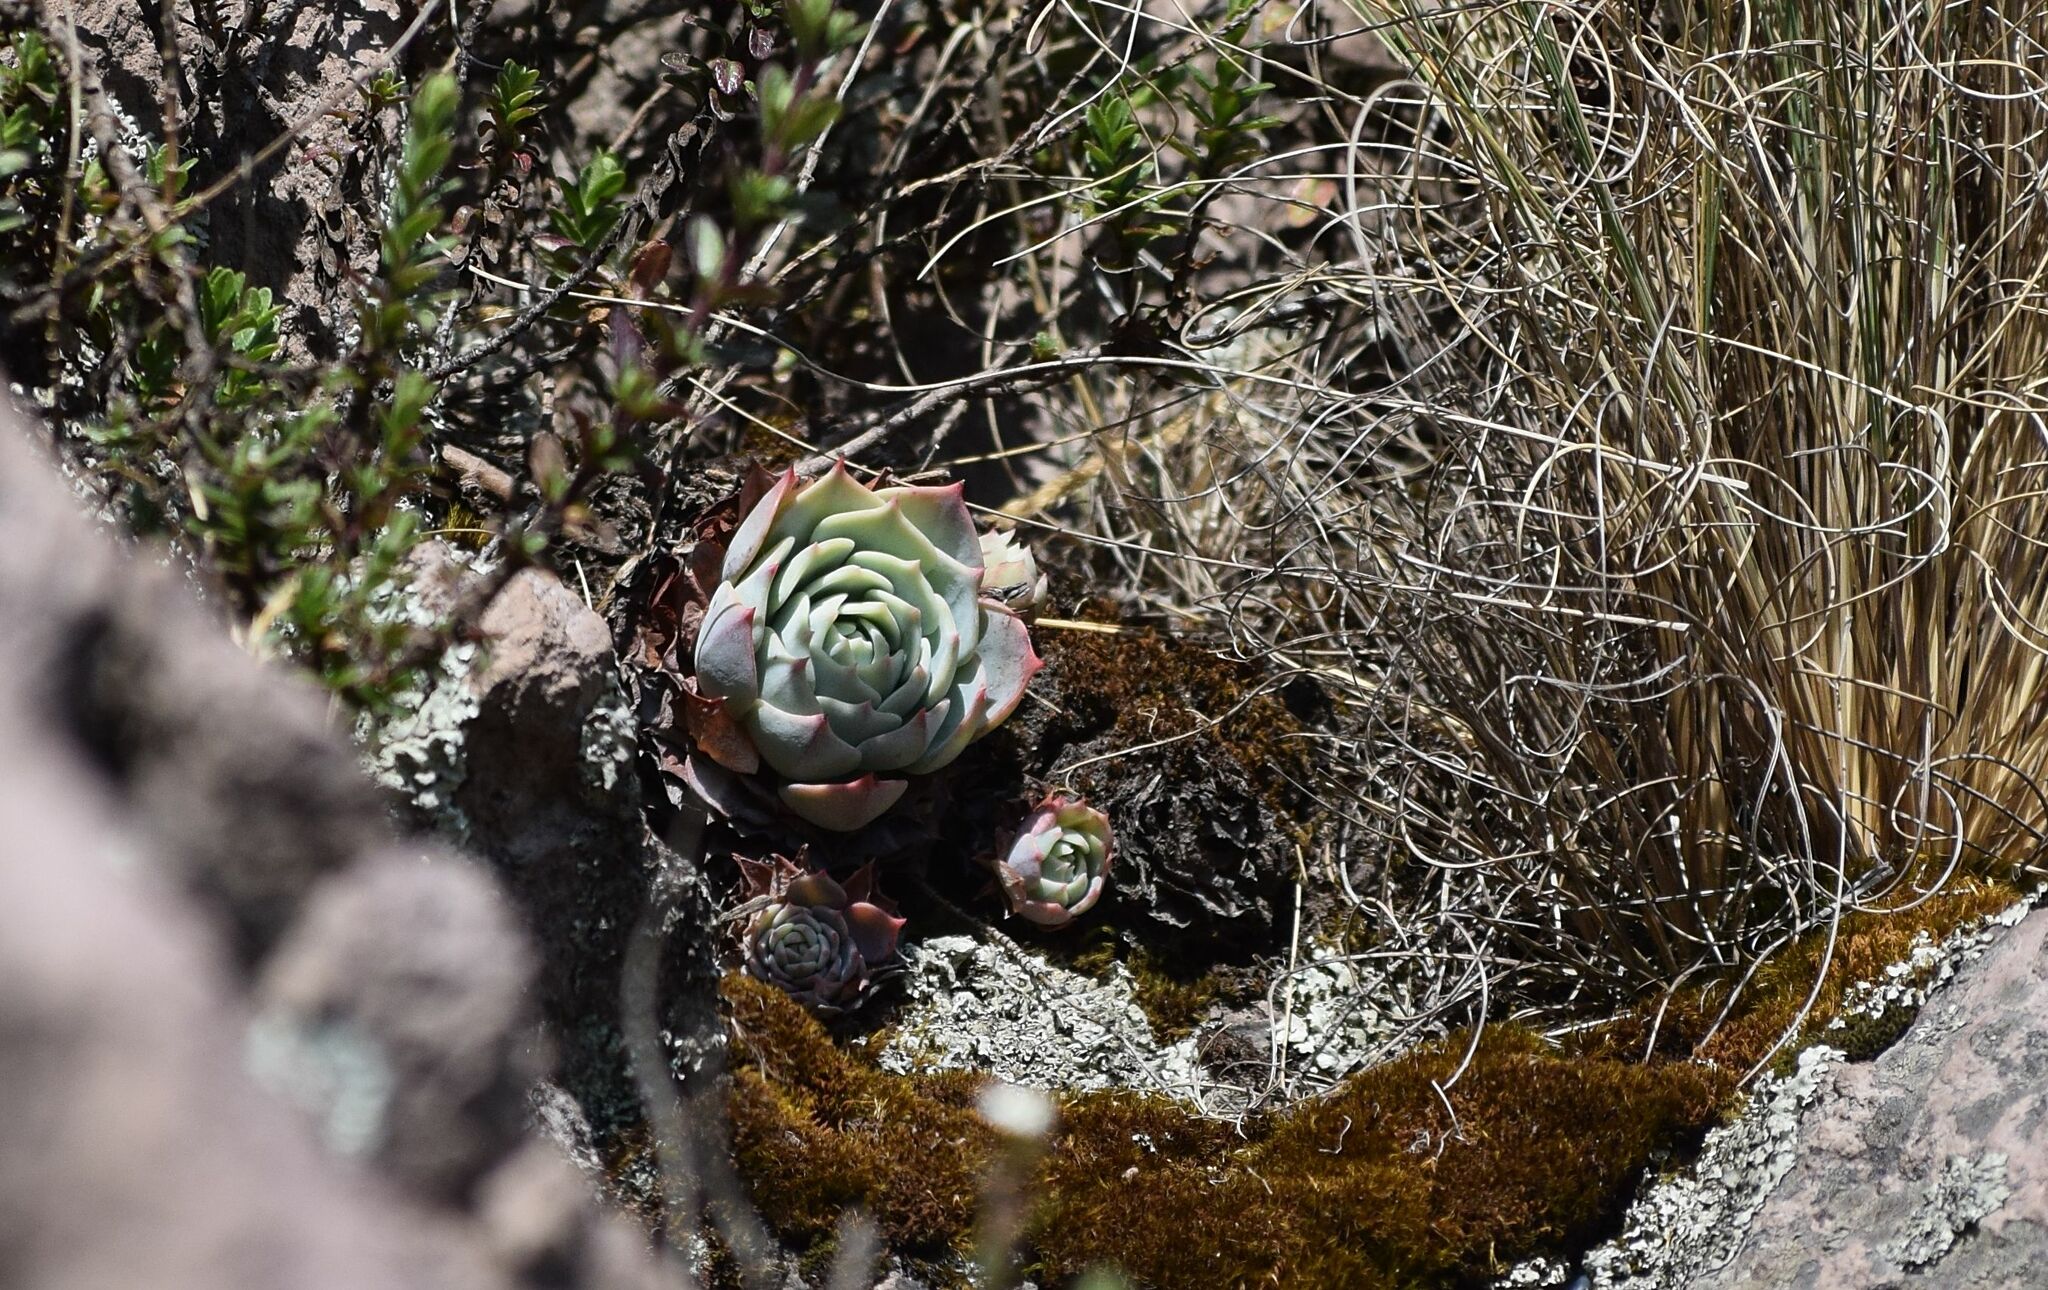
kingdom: Plantae
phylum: Tracheophyta
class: Magnoliopsida
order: Saxifragales
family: Crassulaceae
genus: Echeveria
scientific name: Echeveria secunda
